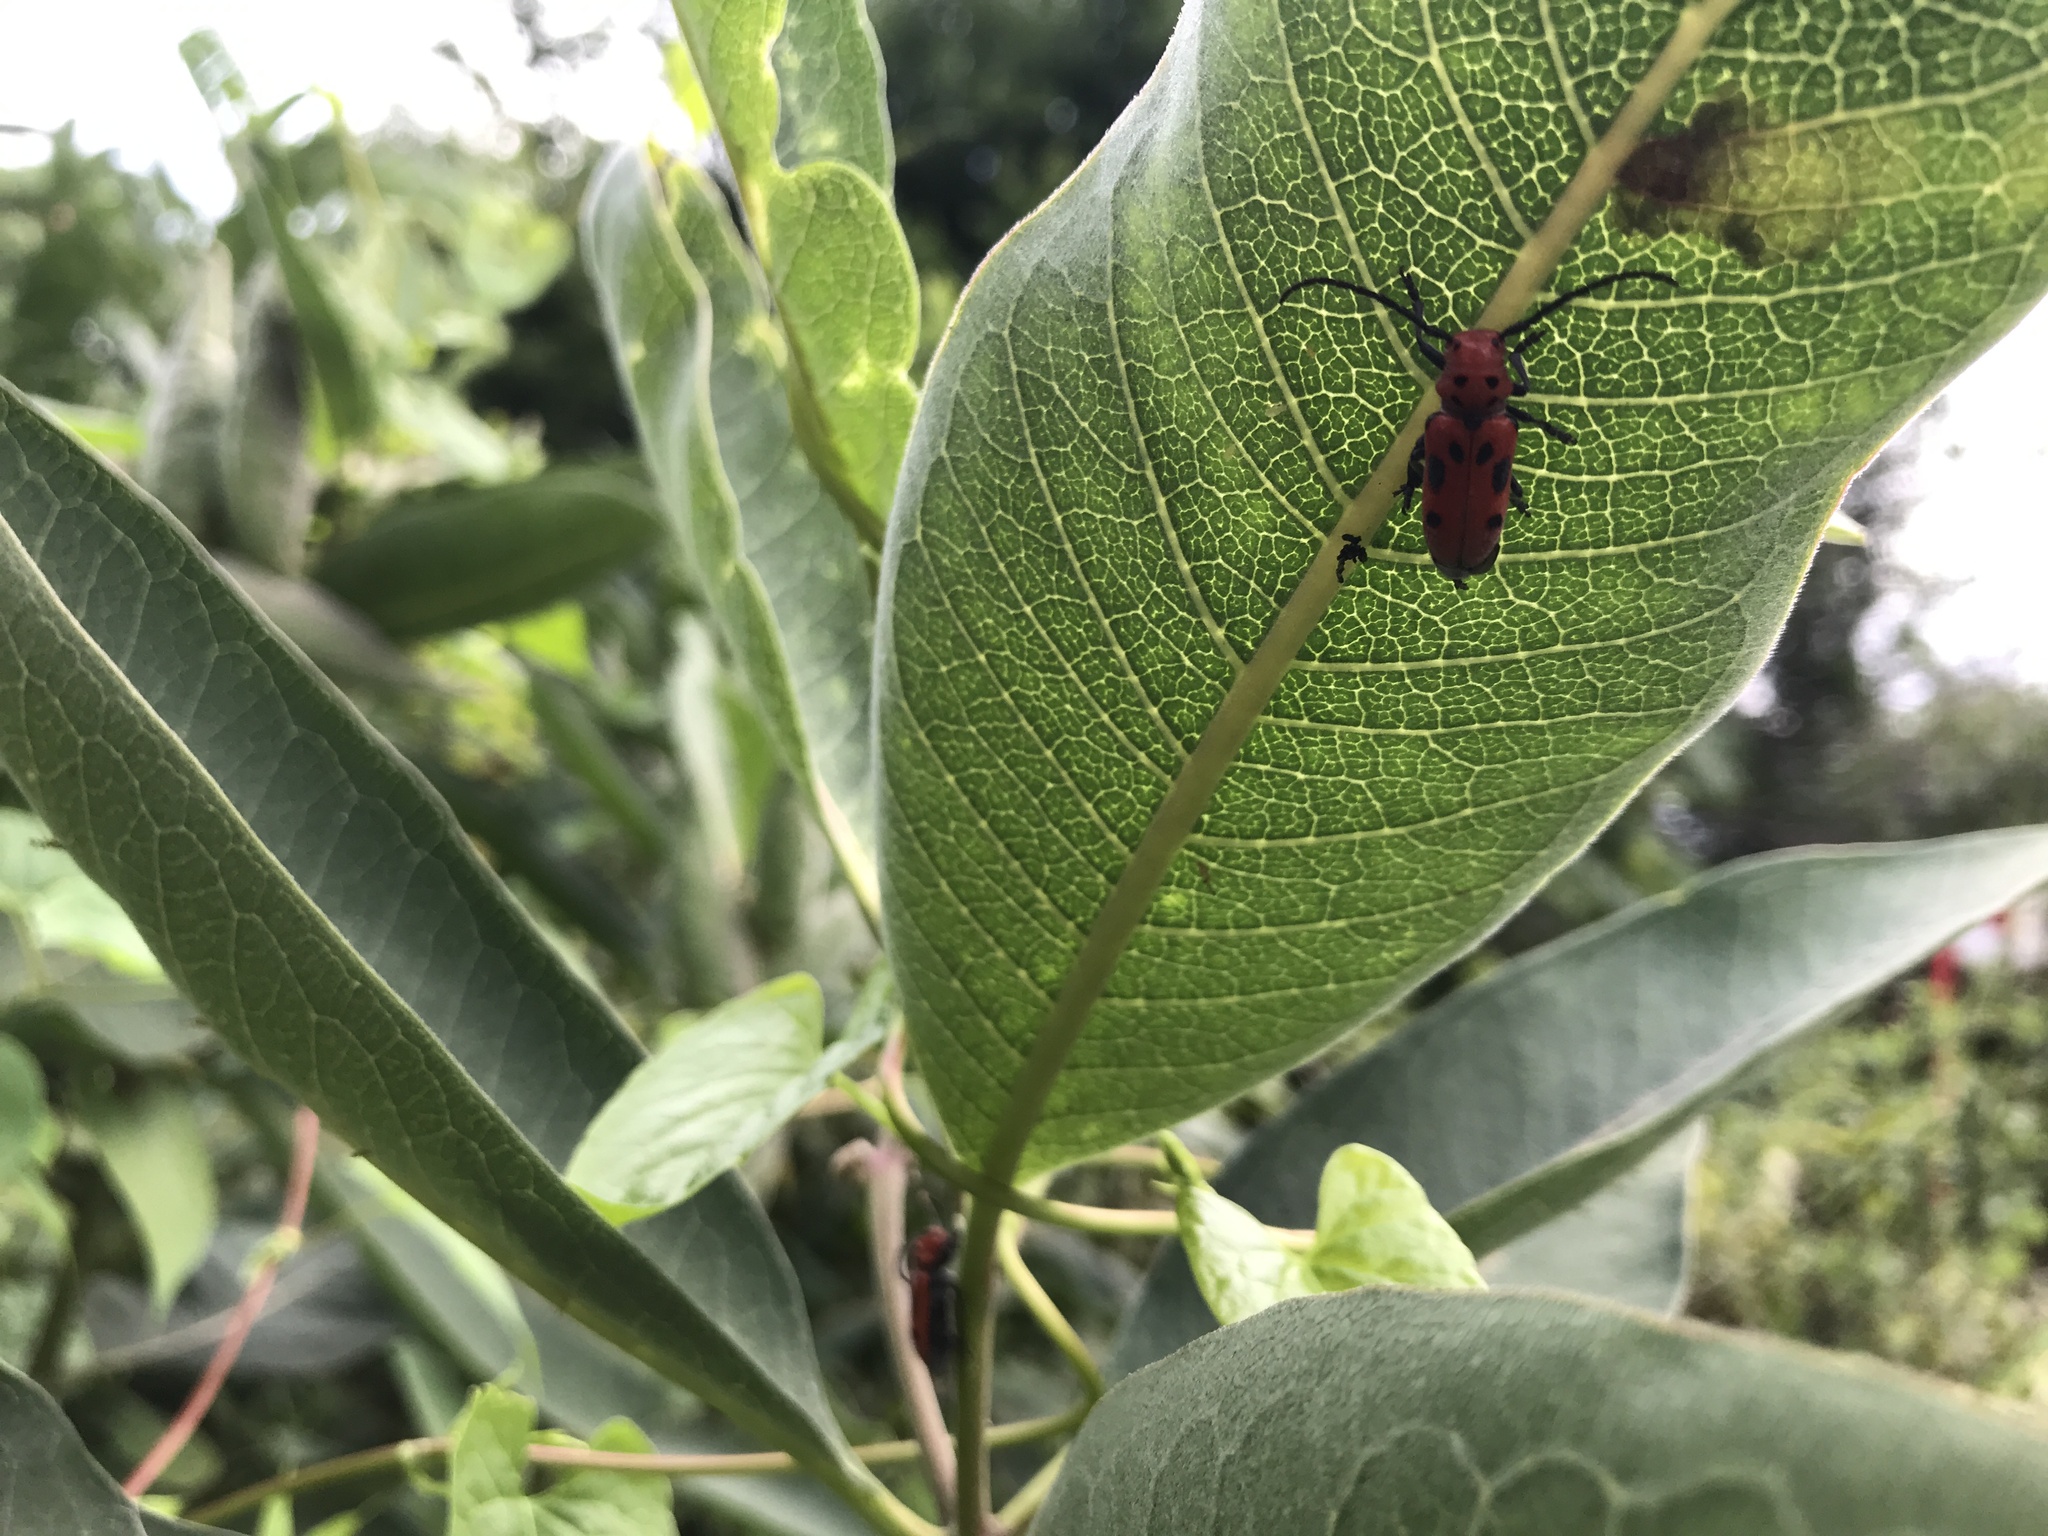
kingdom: Animalia
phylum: Arthropoda
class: Insecta
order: Coleoptera
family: Cerambycidae
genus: Tetraopes
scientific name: Tetraopes tetrophthalmus
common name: Red milkweed beetle
